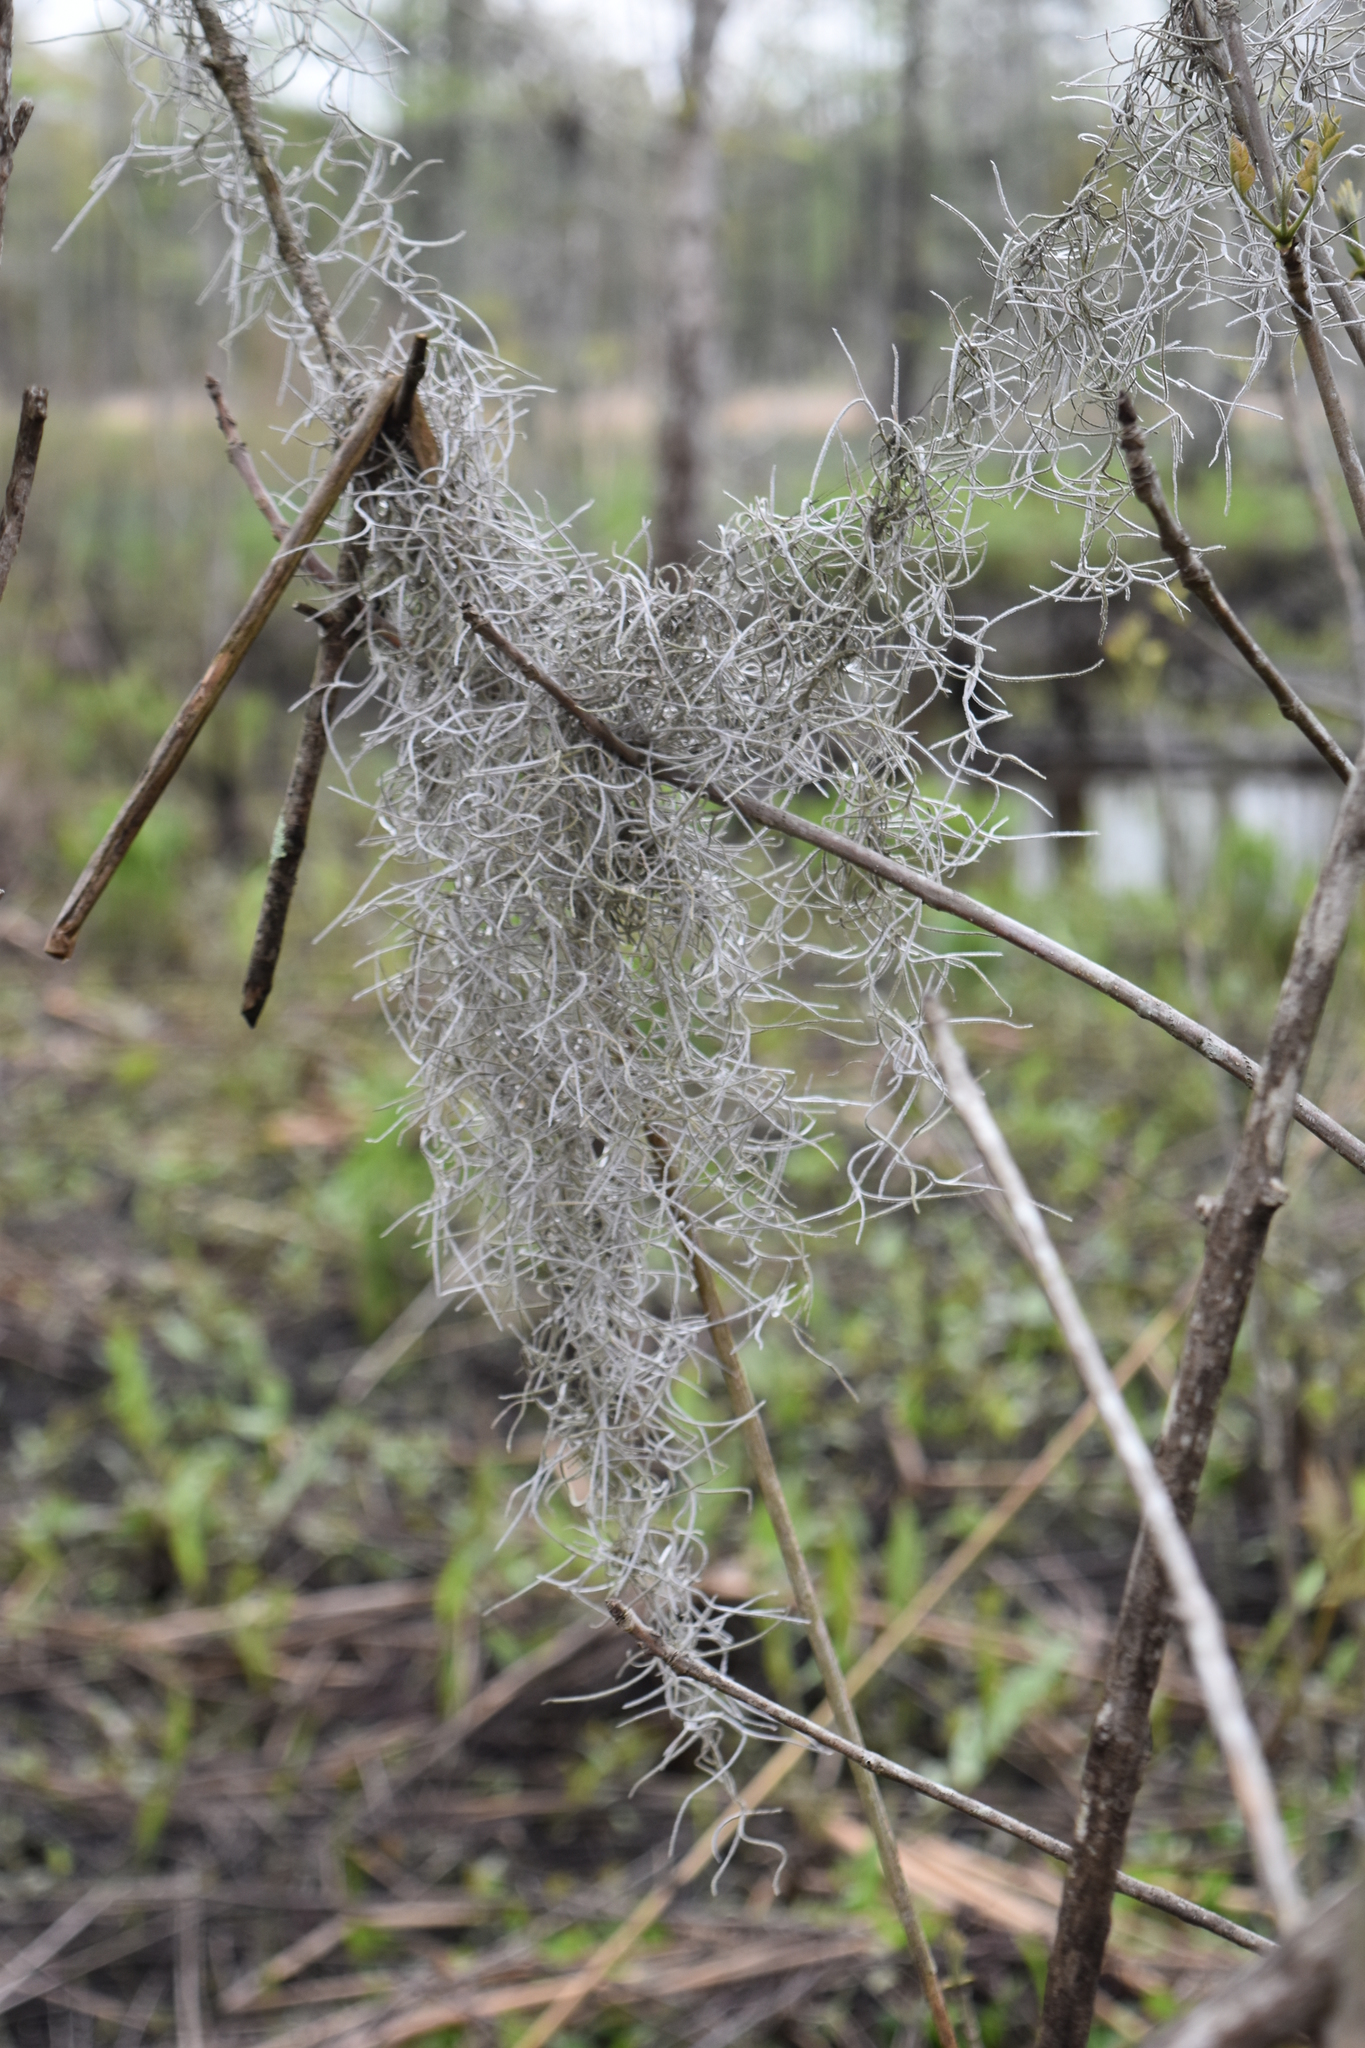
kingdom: Plantae
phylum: Tracheophyta
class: Liliopsida
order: Poales
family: Bromeliaceae
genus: Tillandsia
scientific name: Tillandsia usneoides
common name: Spanish moss
